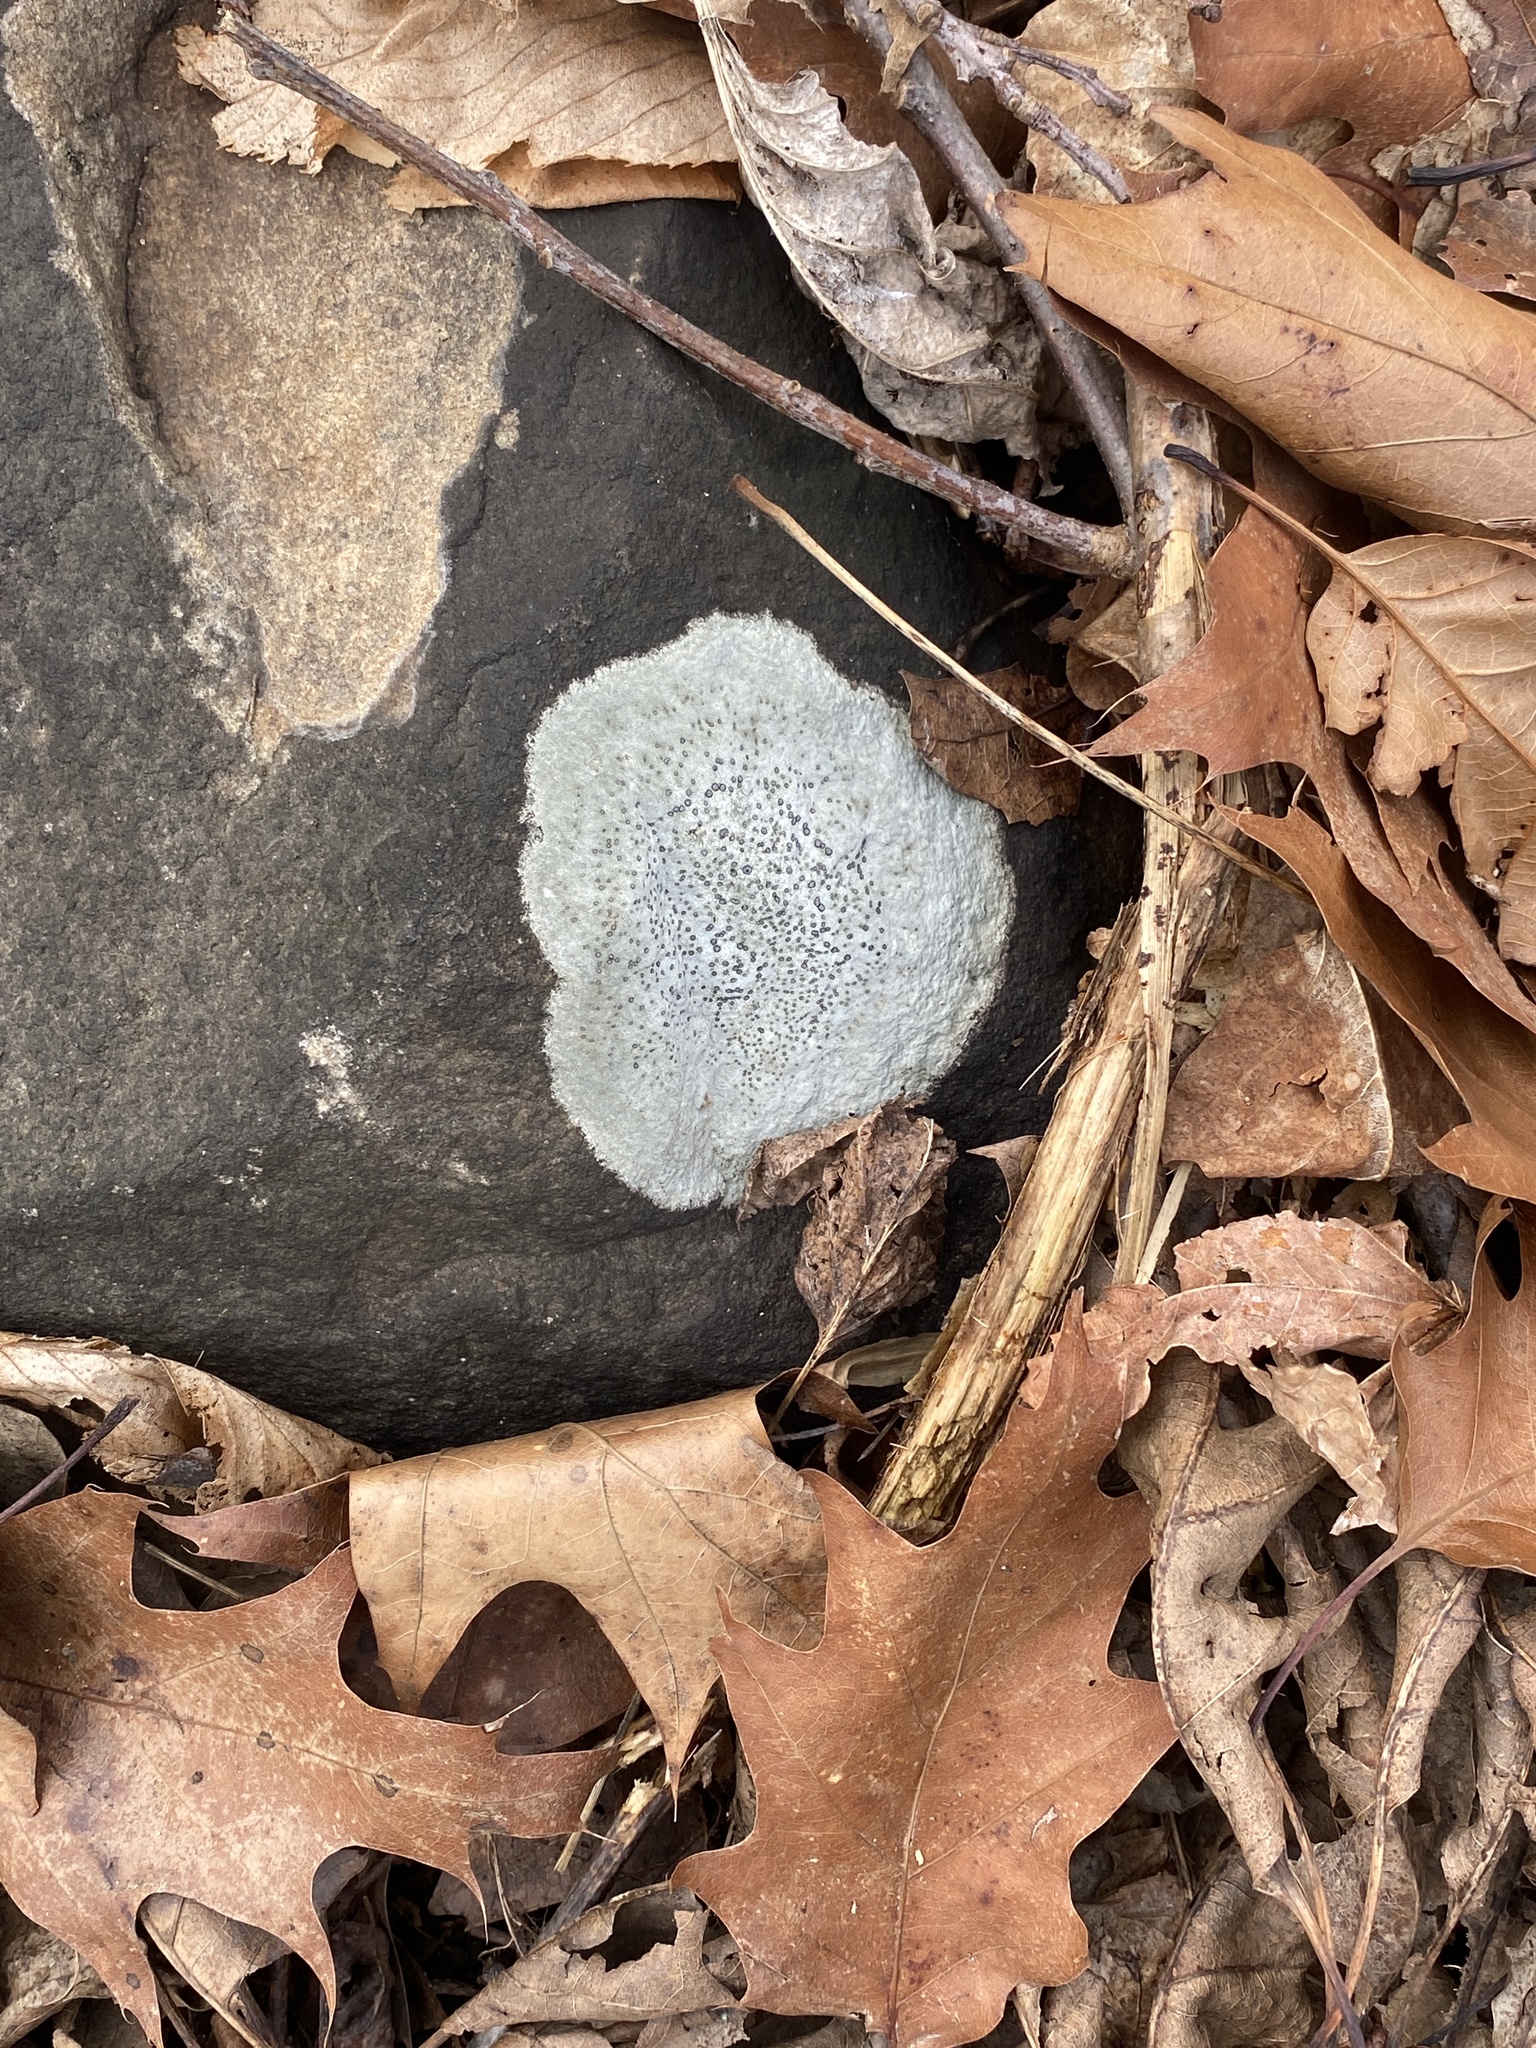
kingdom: Fungi
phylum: Ascomycota
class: Lecanoromycetes
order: Lecideales
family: Lecideaceae
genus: Porpidia
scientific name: Porpidia albocaerulescens
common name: Smokey-eyed boulder lichen
